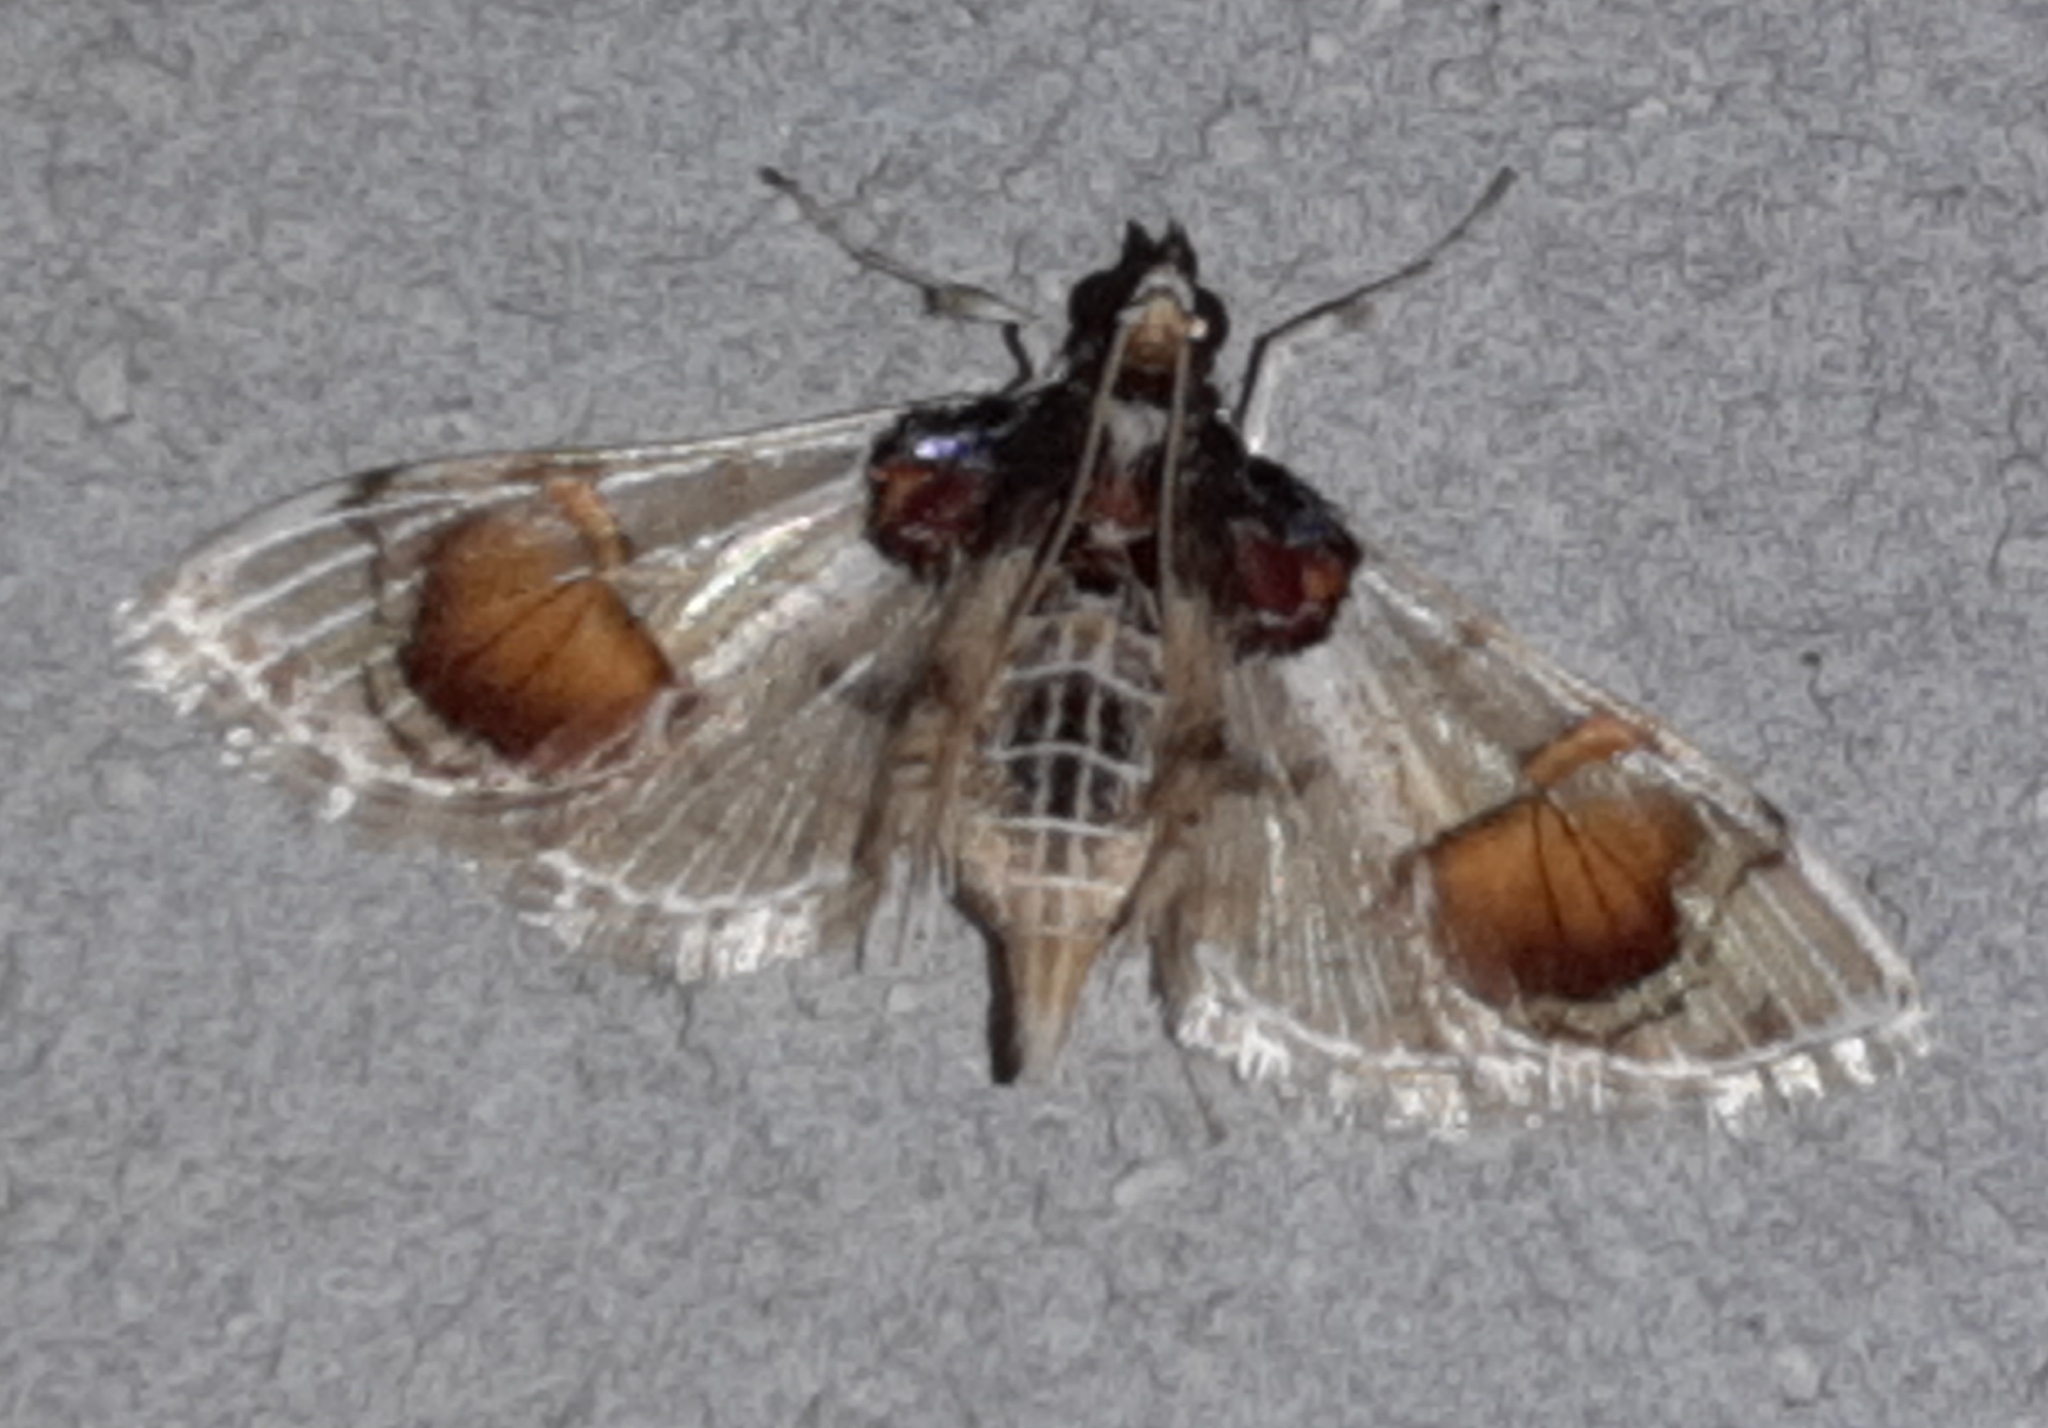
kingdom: Animalia
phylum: Arthropoda
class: Insecta
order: Lepidoptera
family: Crambidae
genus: Syngamilyta
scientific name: Syngamilyta samarialis
